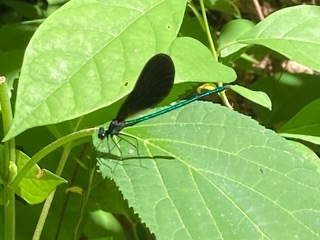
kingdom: Animalia
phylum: Arthropoda
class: Insecta
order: Odonata
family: Calopterygidae
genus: Calopteryx
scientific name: Calopteryx maculata
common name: Ebony jewelwing
